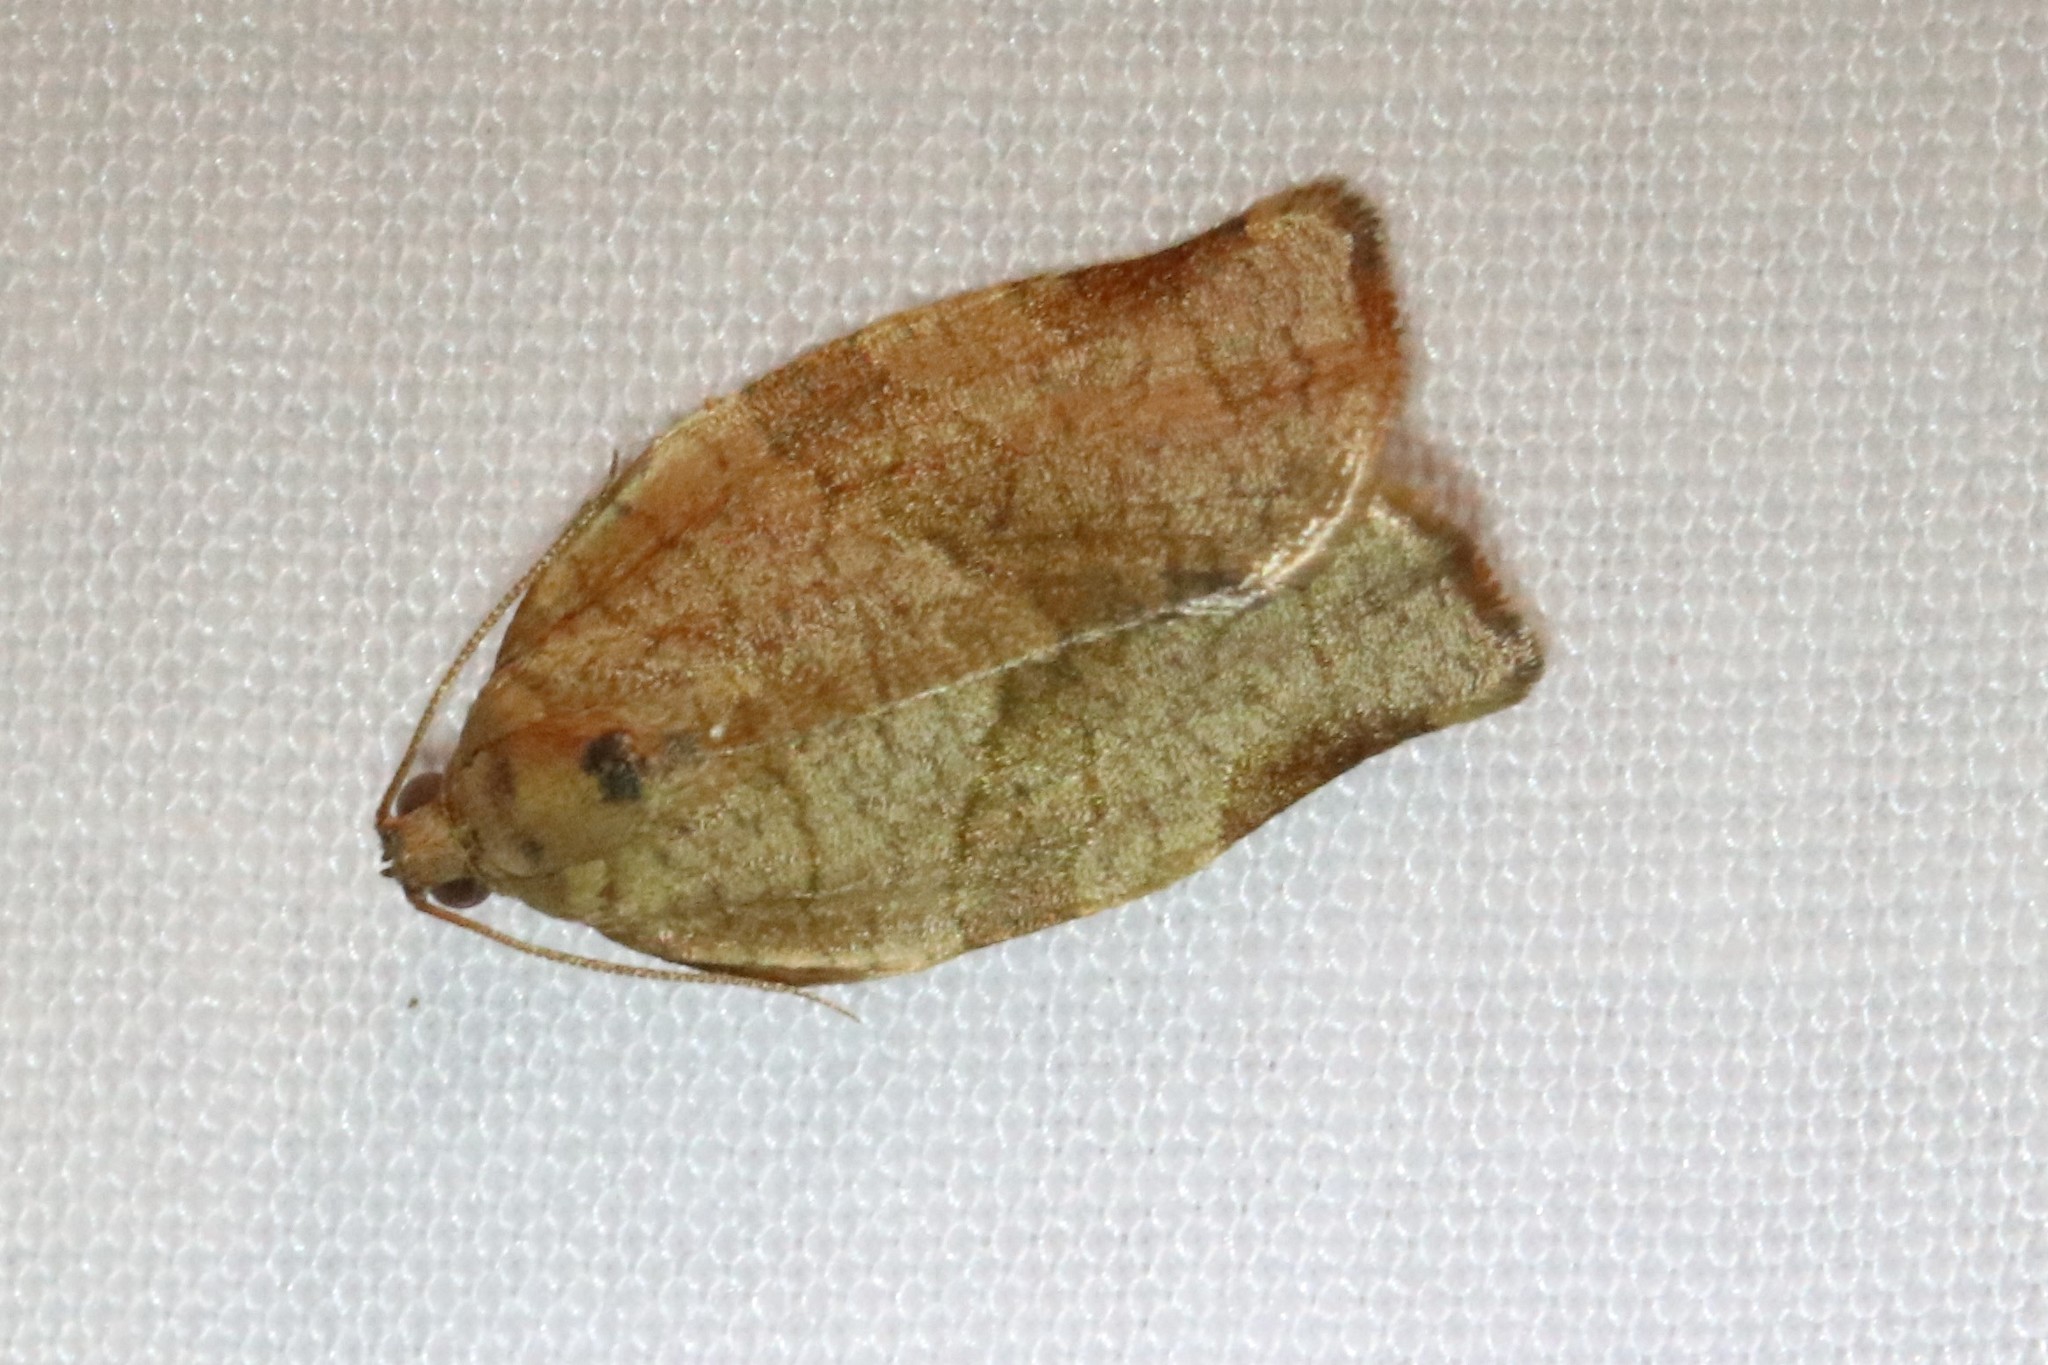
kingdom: Animalia
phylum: Arthropoda
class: Insecta
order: Lepidoptera
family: Tortricidae
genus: Choristoneura
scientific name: Choristoneura rosaceana
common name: Oblique-banded leafroller moth
